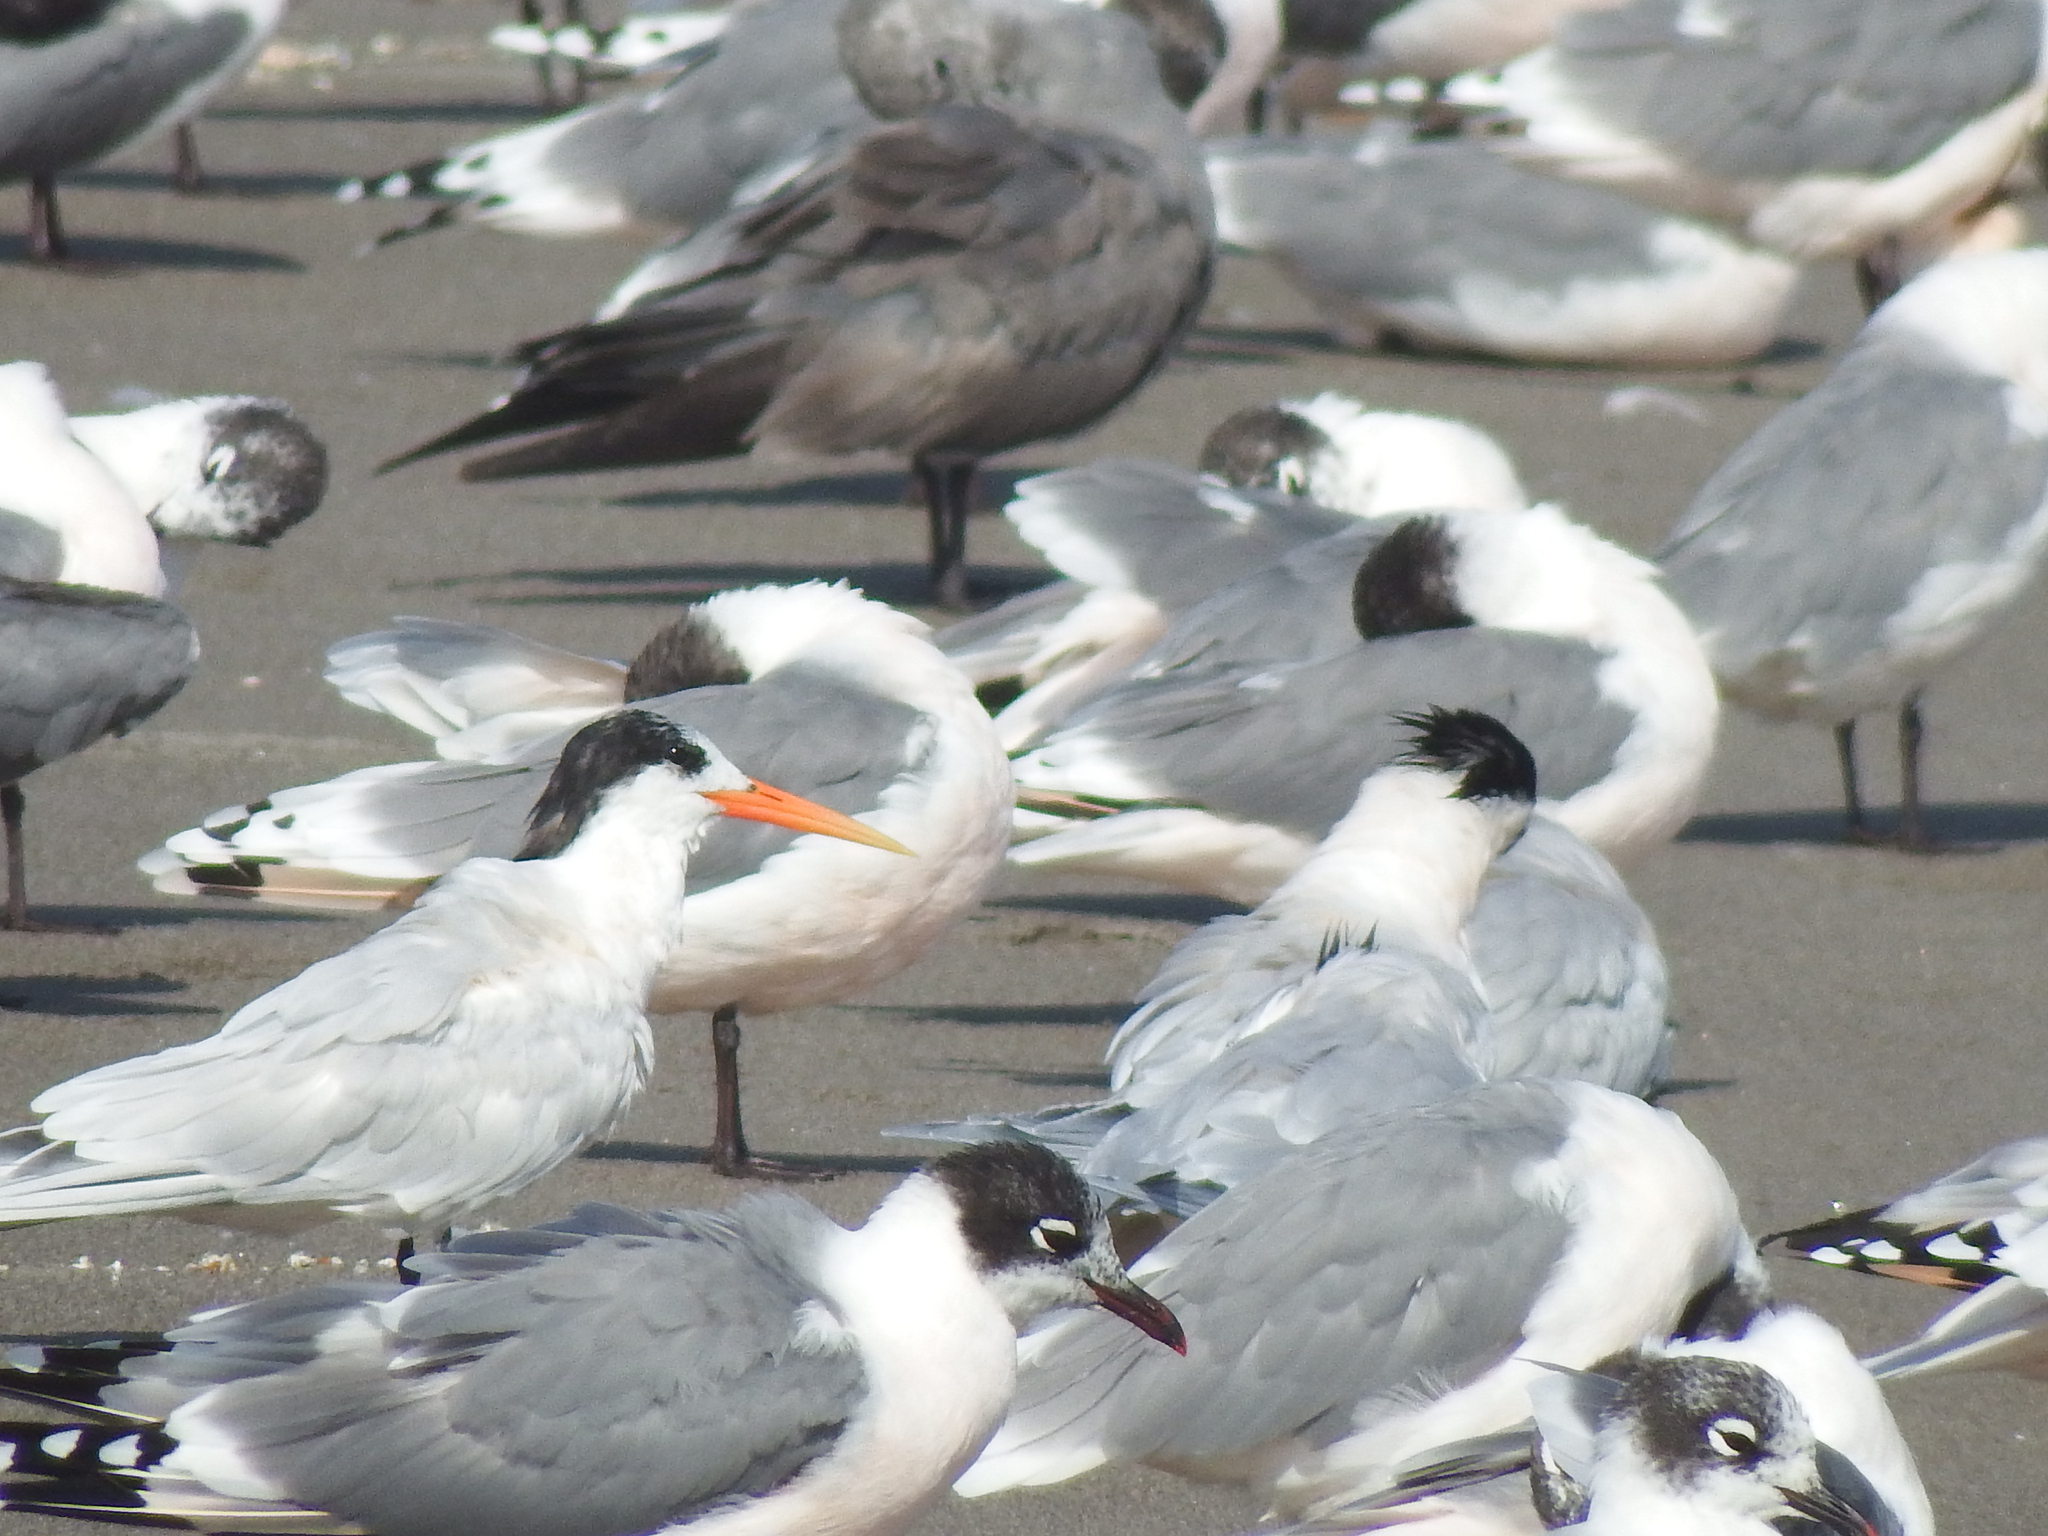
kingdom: Animalia
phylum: Chordata
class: Aves
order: Charadriiformes
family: Laridae
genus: Thalasseus
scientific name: Thalasseus elegans
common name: Elegant tern
